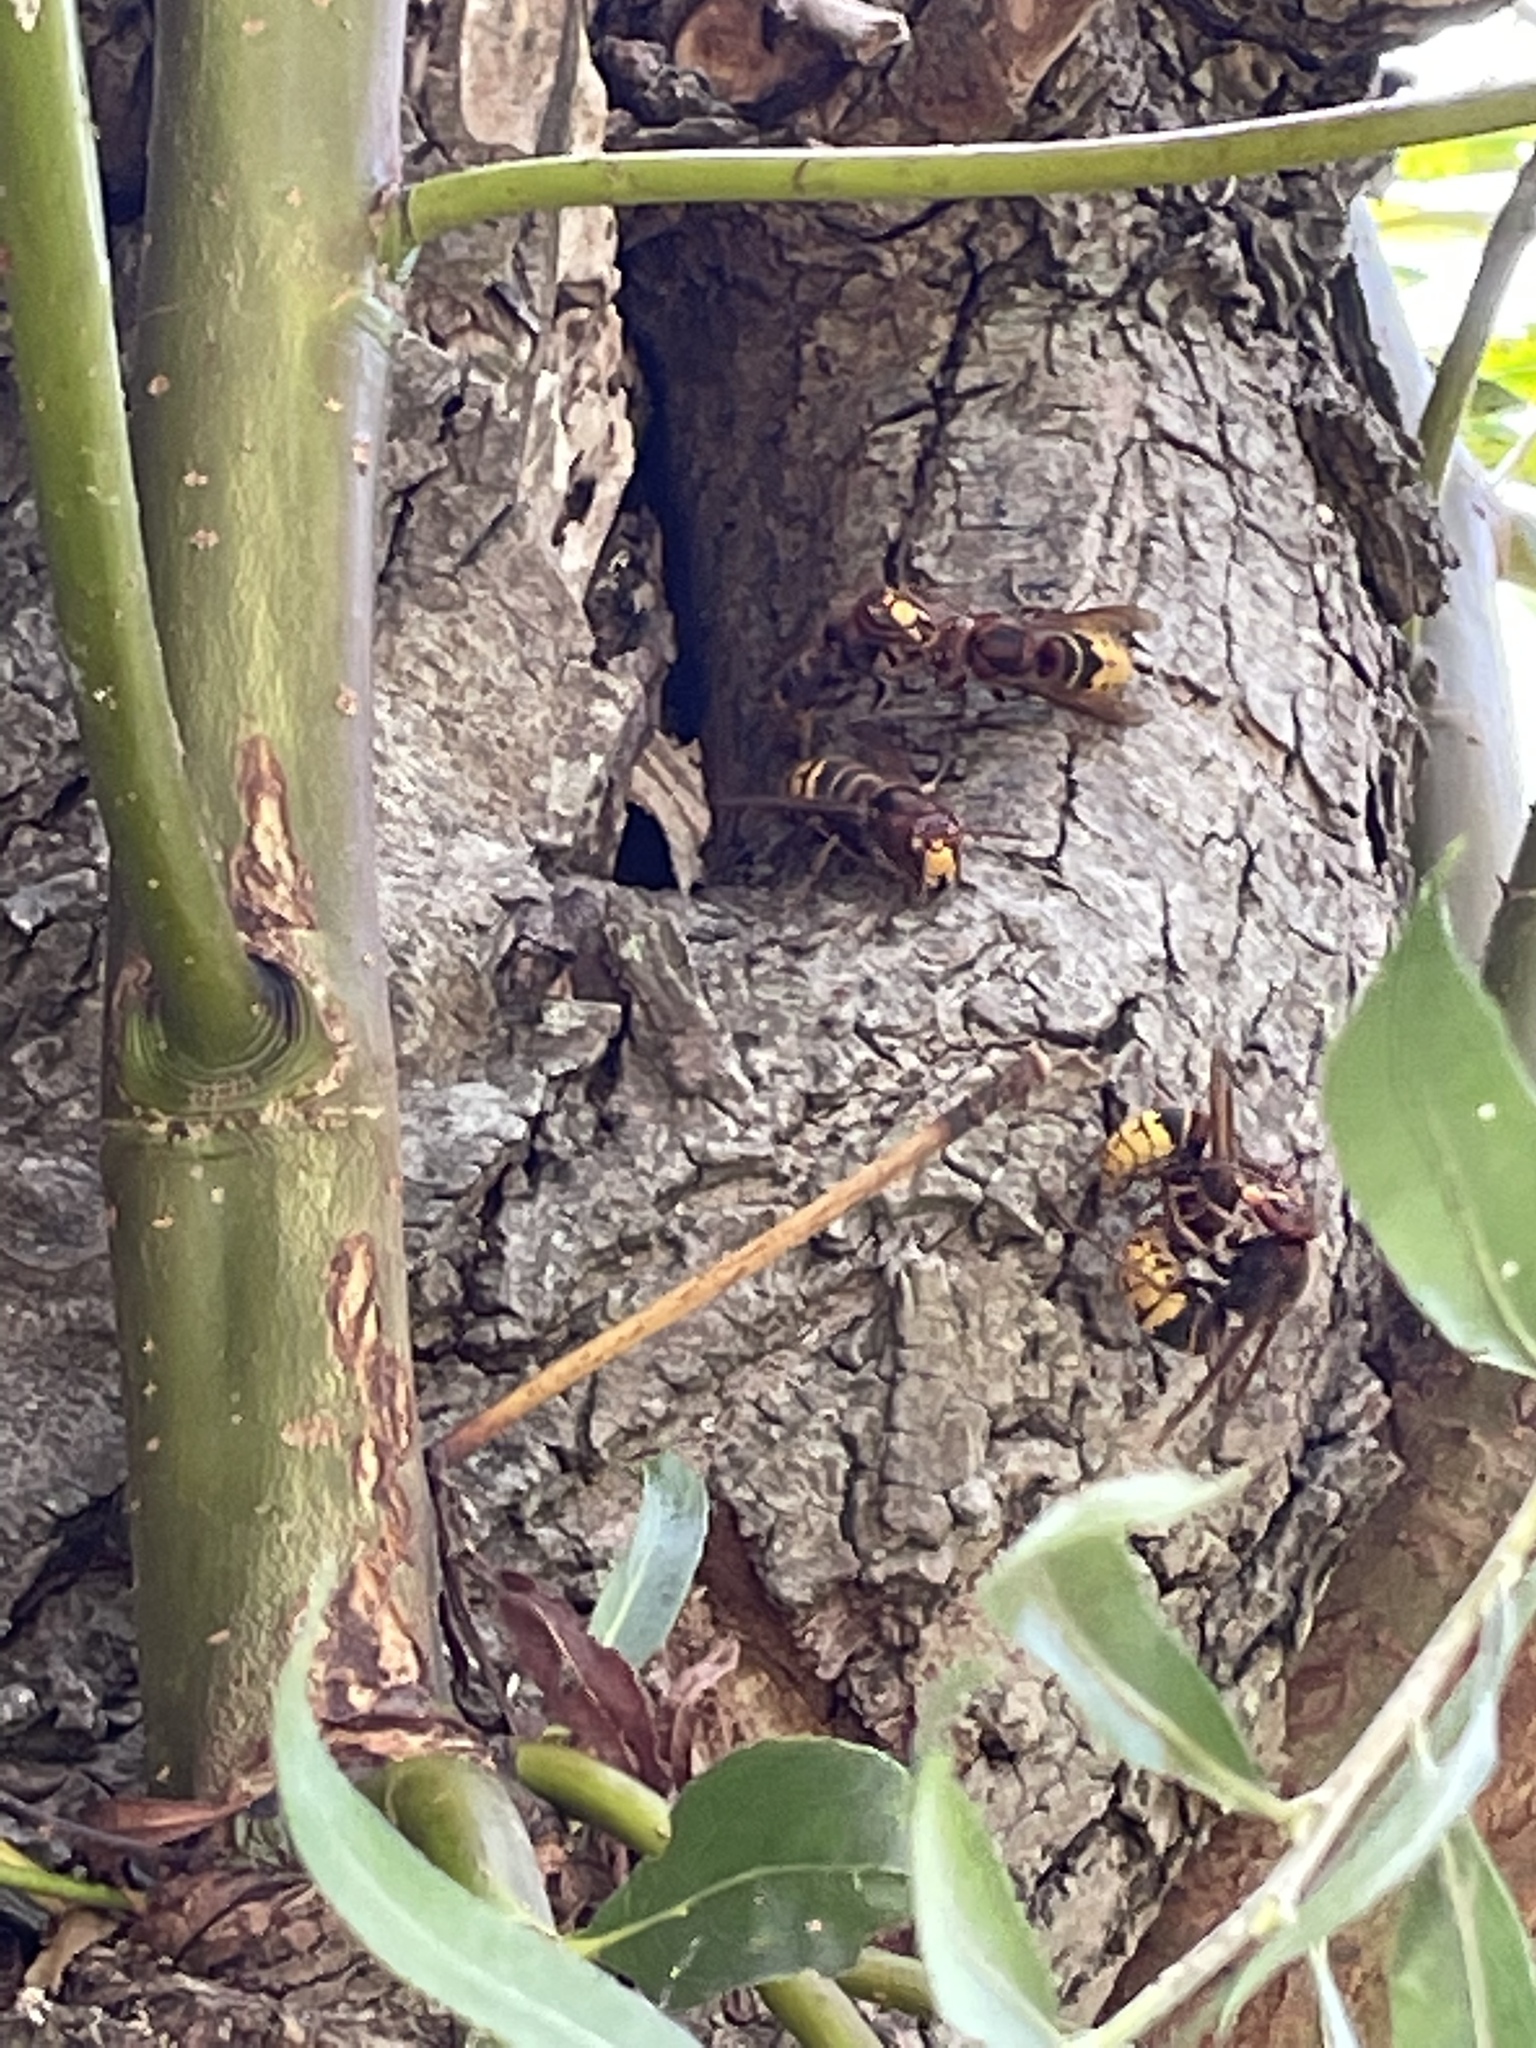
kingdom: Animalia
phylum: Arthropoda
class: Insecta
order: Hymenoptera
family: Vespidae
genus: Vespa
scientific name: Vespa crabro
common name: Hornet
